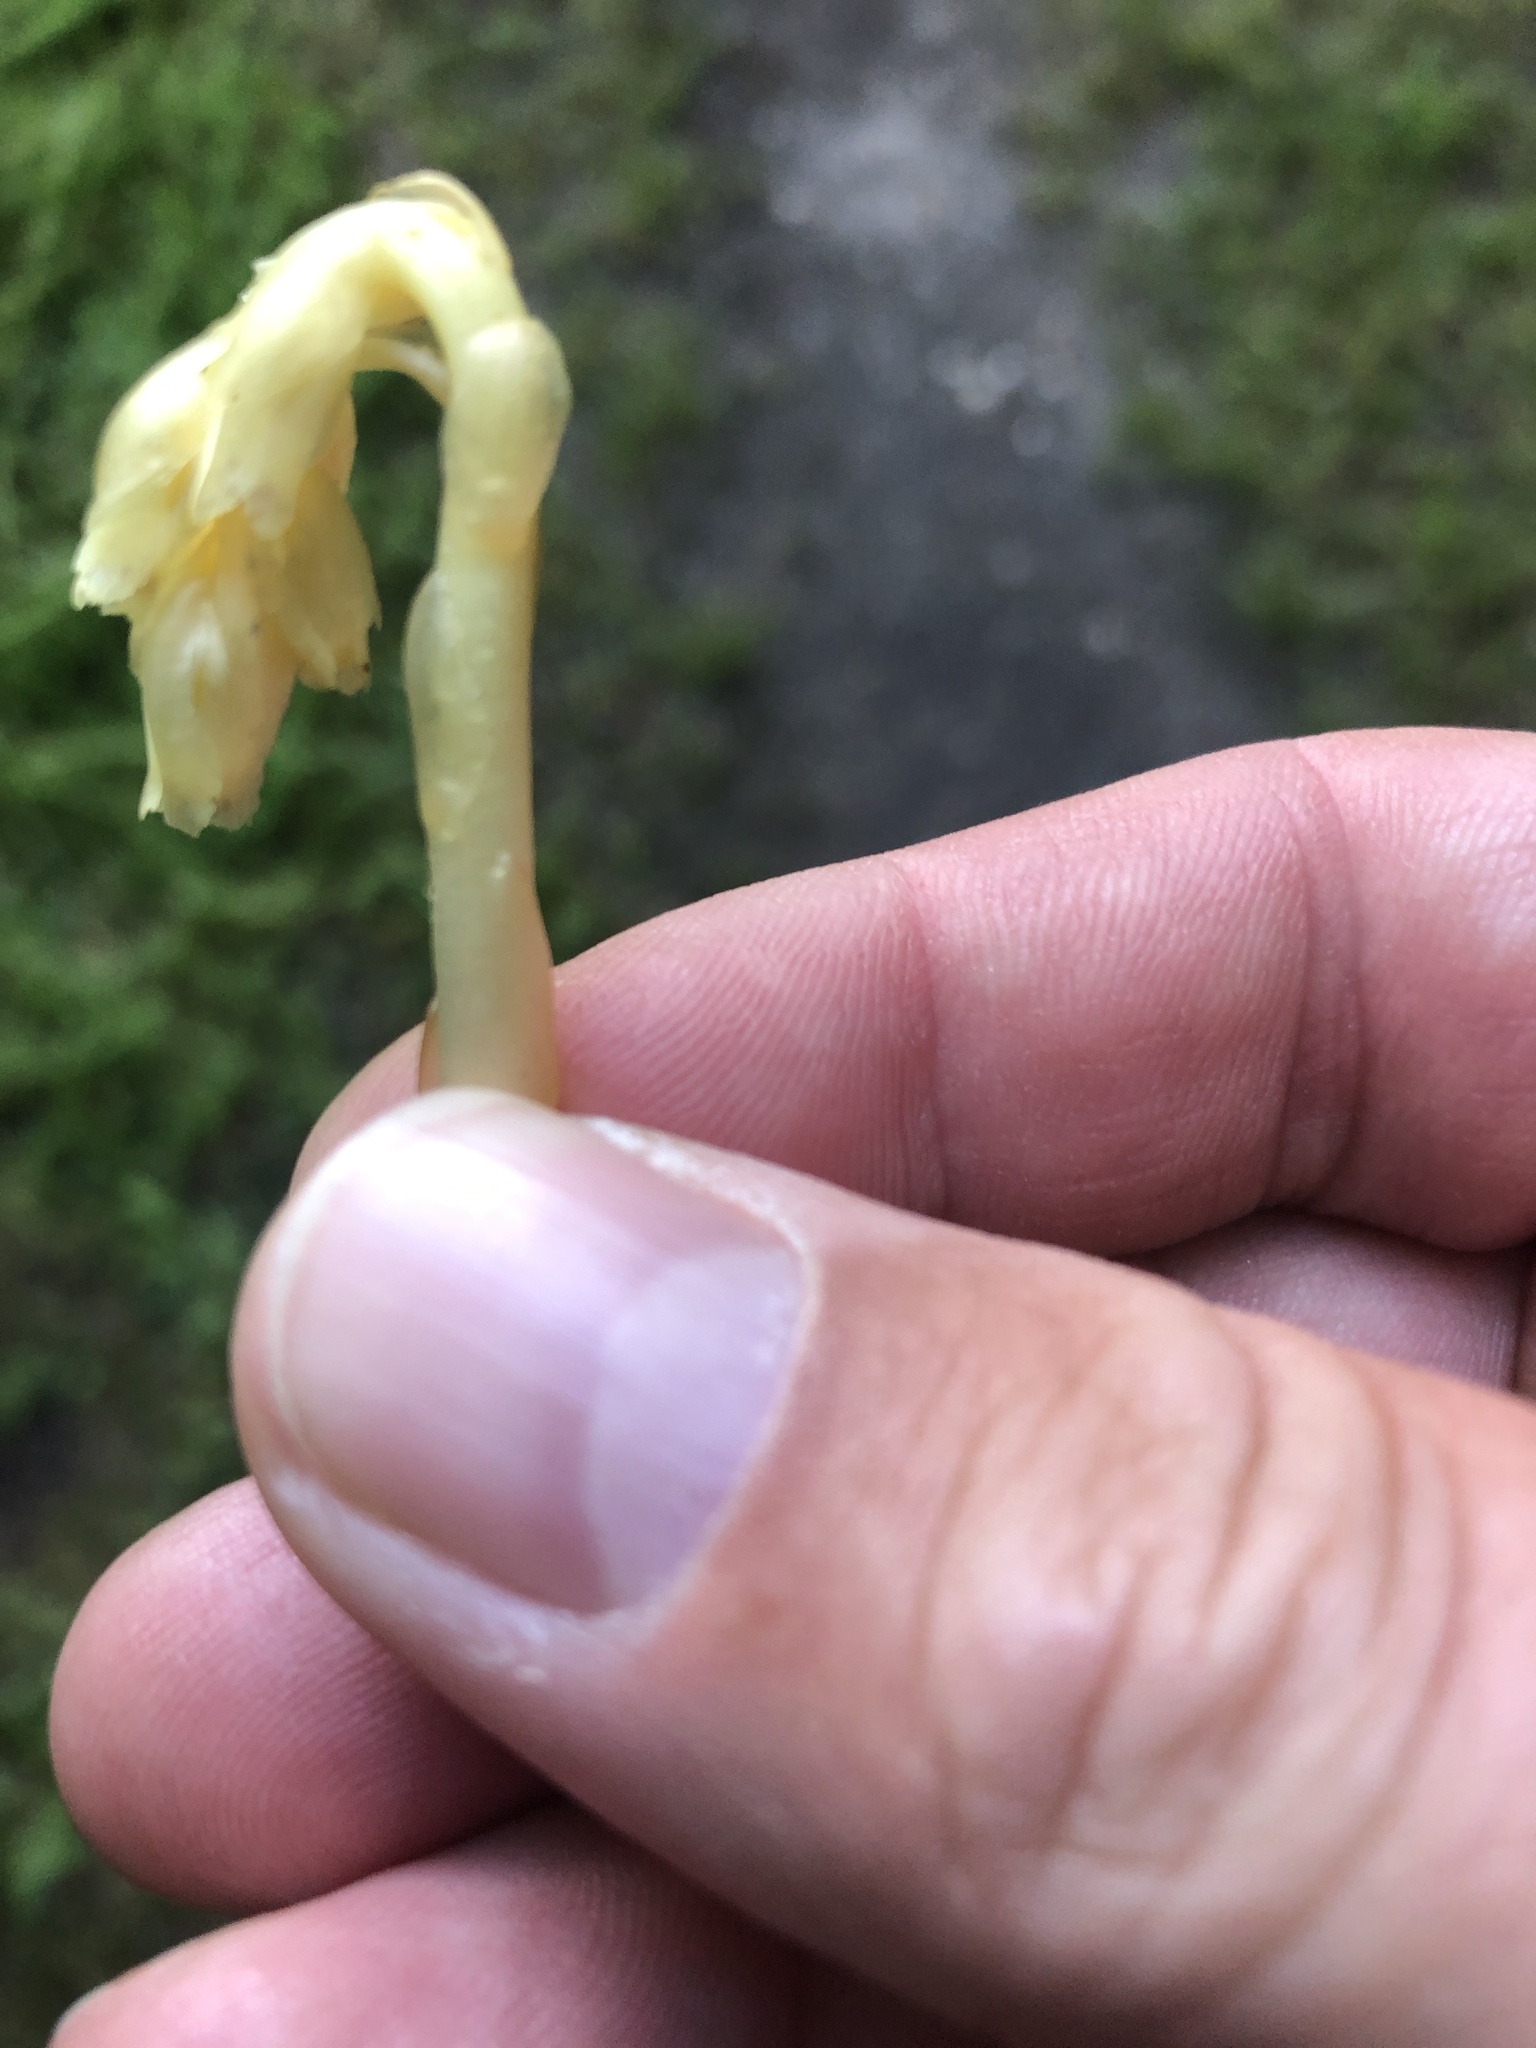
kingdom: Plantae
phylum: Tracheophyta
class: Magnoliopsida
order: Ericales
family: Ericaceae
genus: Hypopitys
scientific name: Hypopitys monotropa
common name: Yellow bird's-nest
